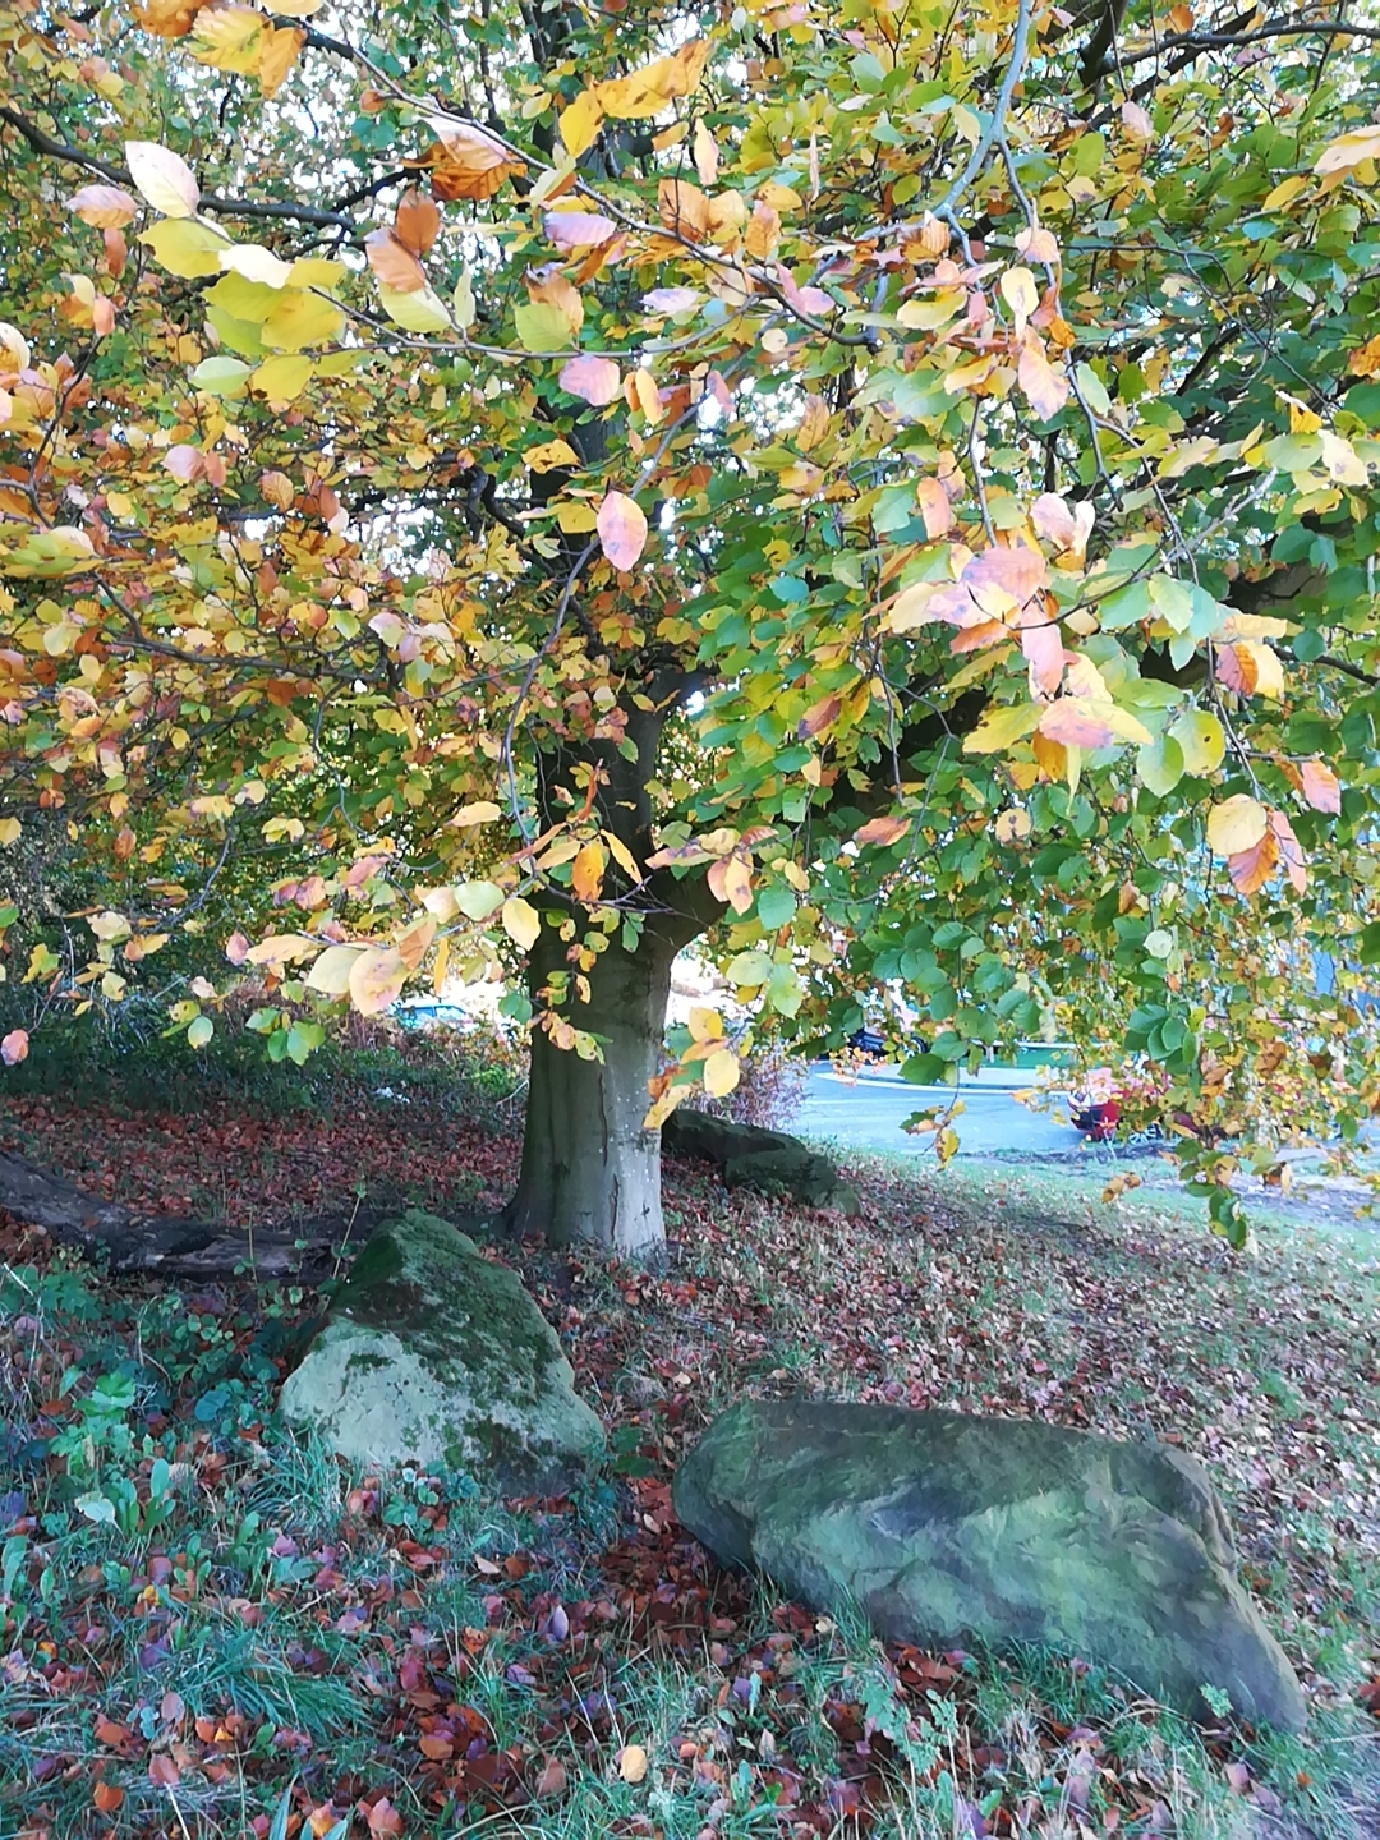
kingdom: Plantae
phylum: Tracheophyta
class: Magnoliopsida
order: Fagales
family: Fagaceae
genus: Fagus
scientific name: Fagus sylvatica
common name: Beech
